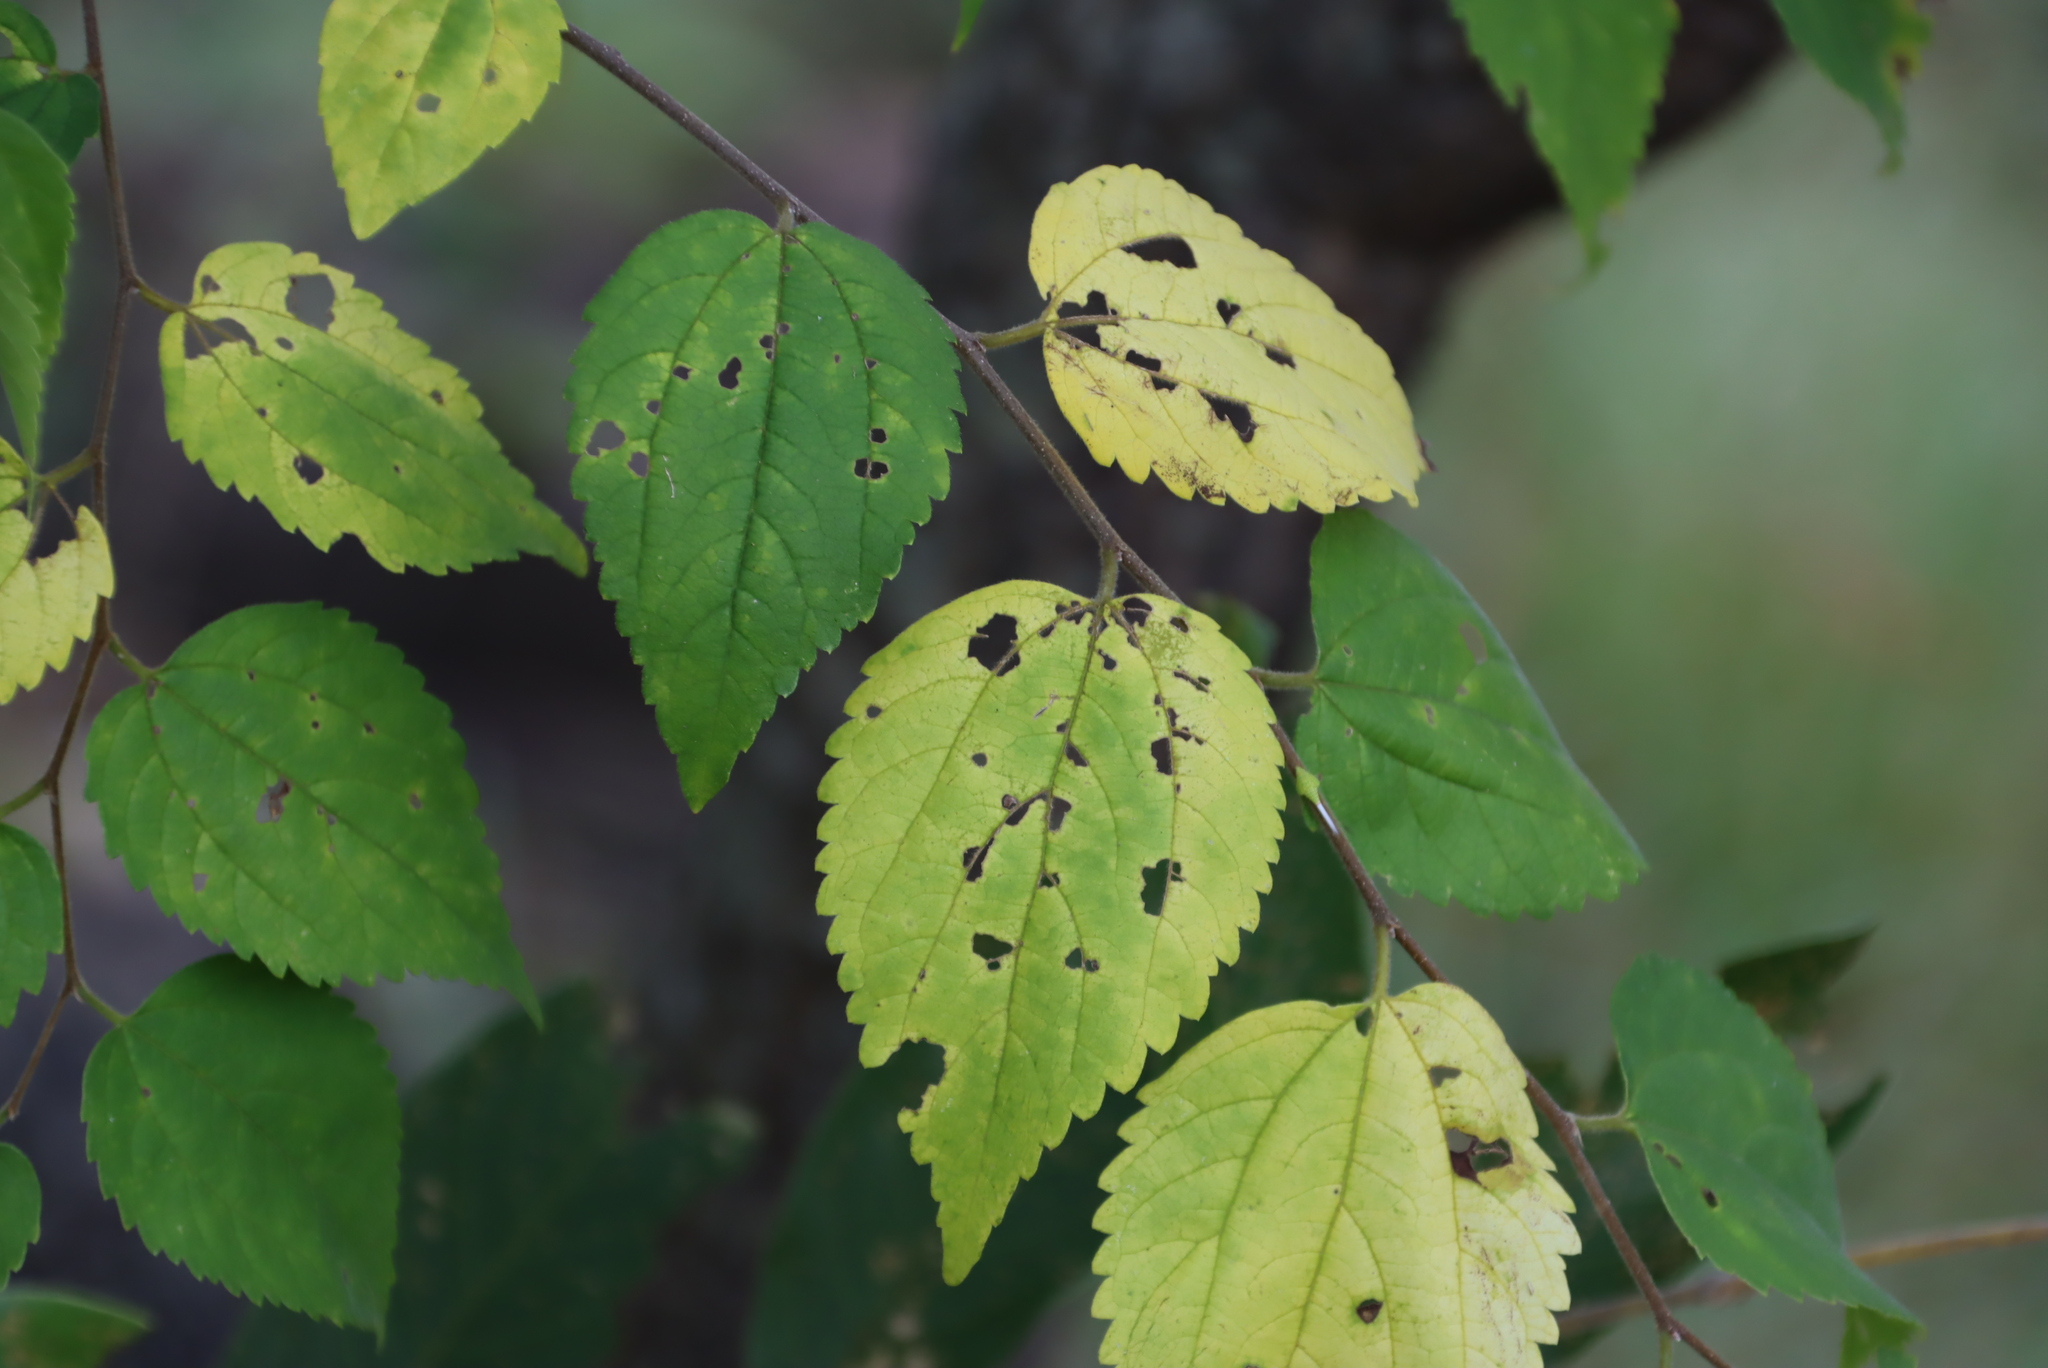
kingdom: Plantae
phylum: Tracheophyta
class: Magnoliopsida
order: Rosales
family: Cannabaceae
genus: Celtis
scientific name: Celtis africana
